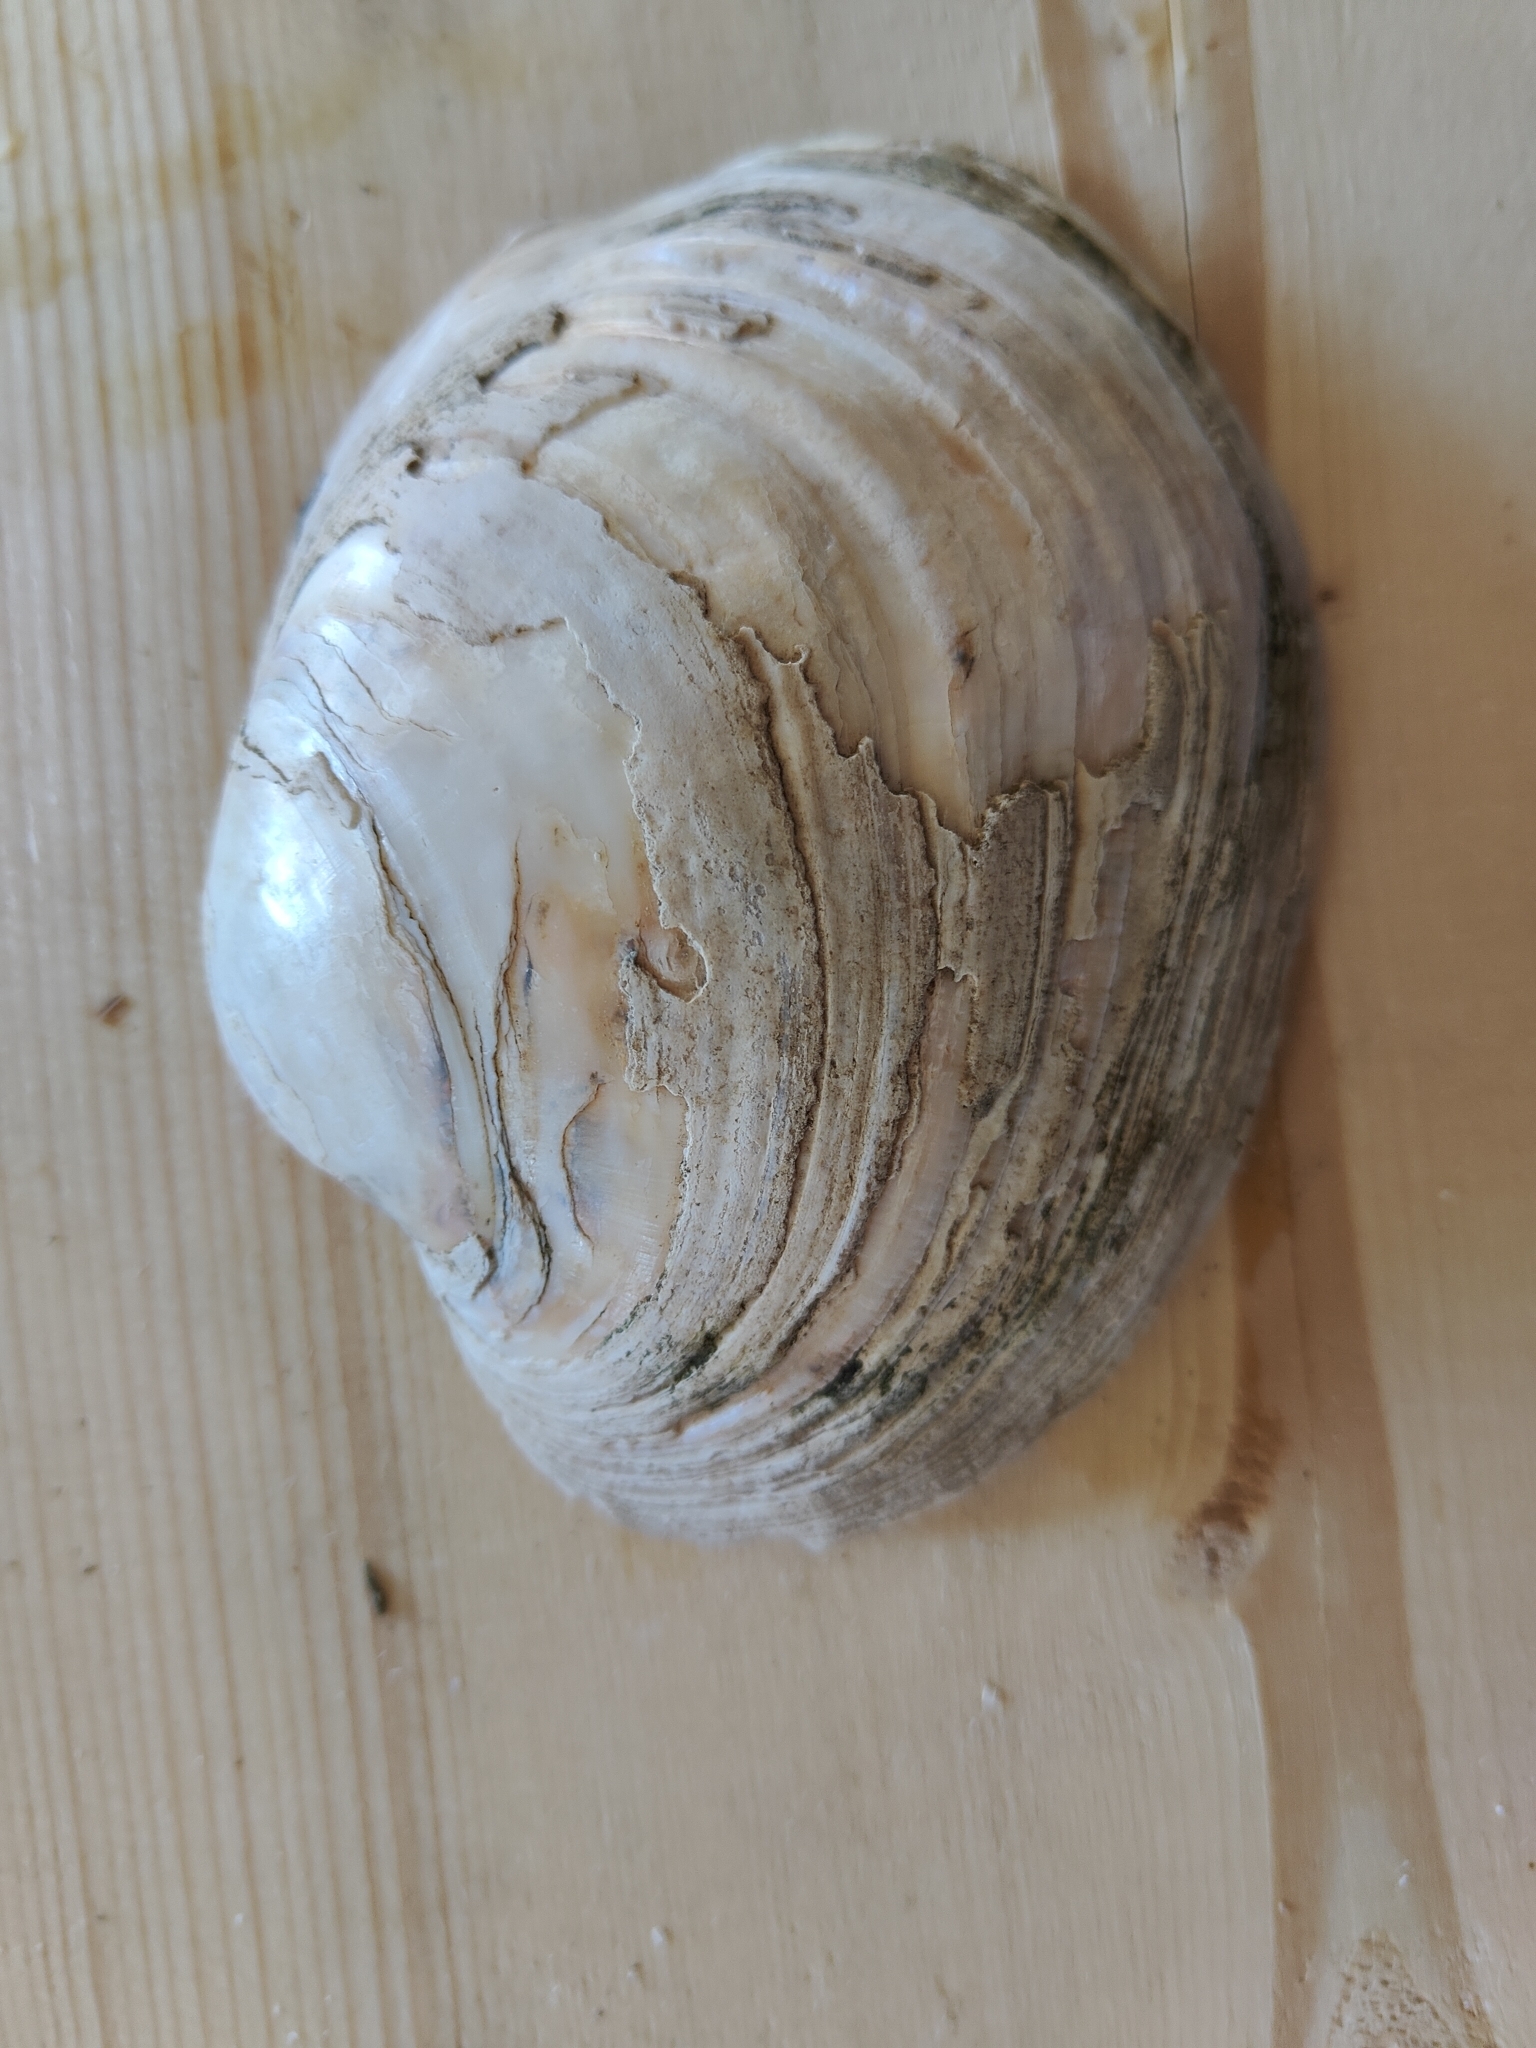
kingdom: Animalia
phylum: Mollusca
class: Bivalvia
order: Unionida
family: Unionidae
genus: Lampsilis
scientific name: Lampsilis cardium
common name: Plain pocketbook
